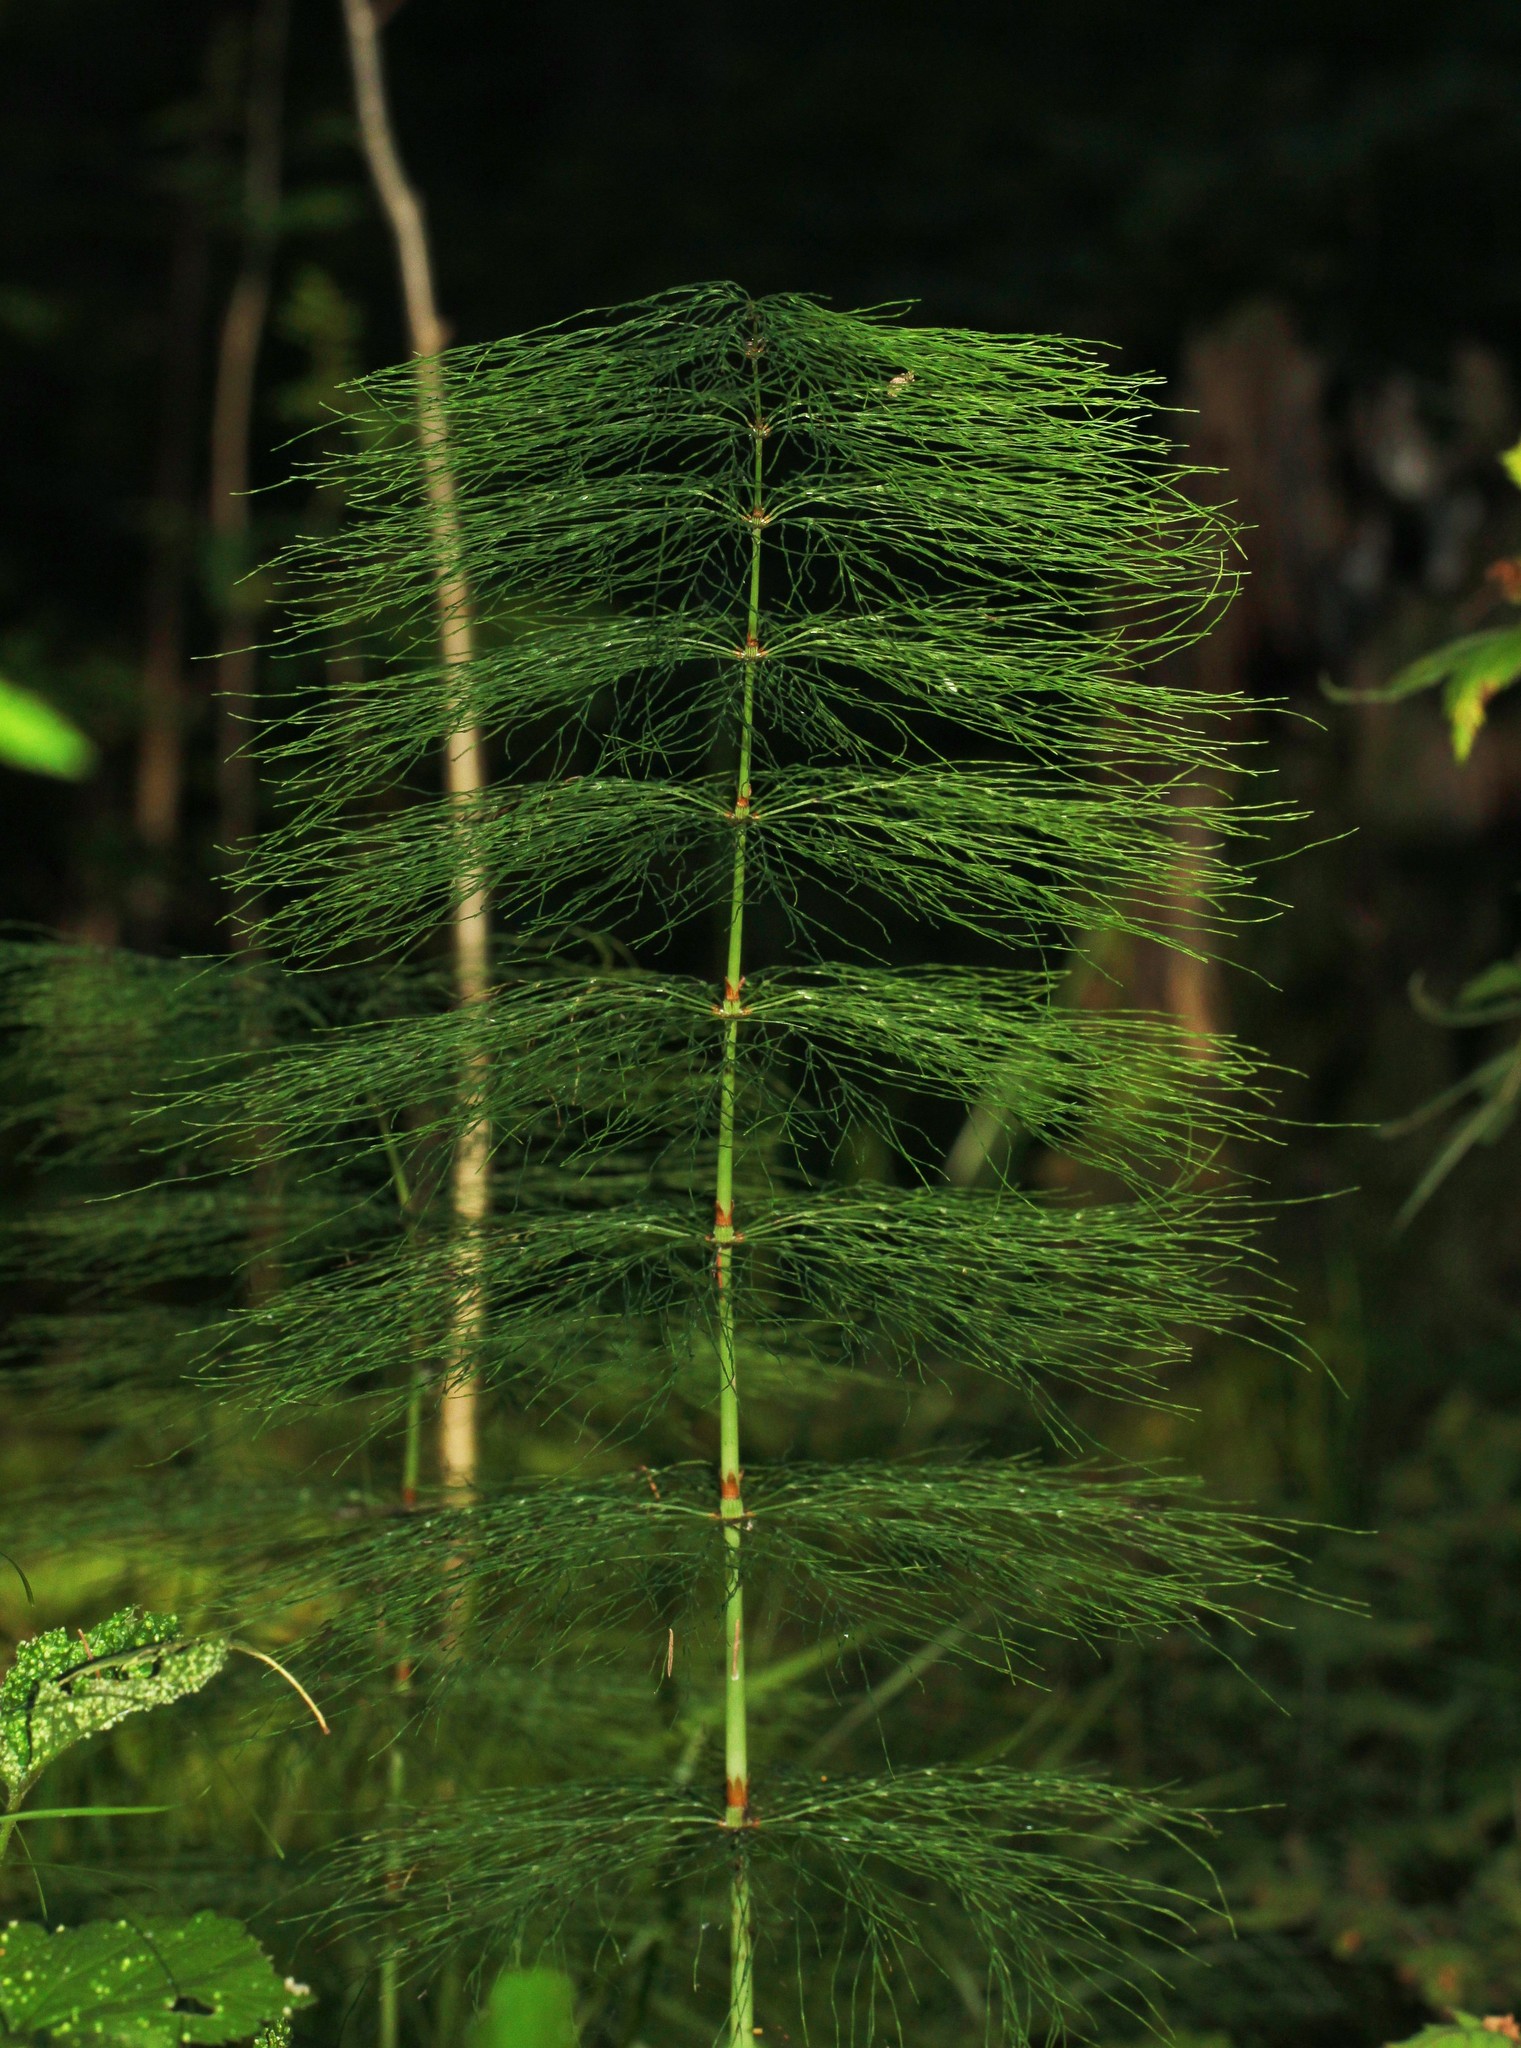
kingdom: Plantae
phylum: Tracheophyta
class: Polypodiopsida
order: Equisetales
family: Equisetaceae
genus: Equisetum
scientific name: Equisetum sylvaticum
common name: Wood horsetail
